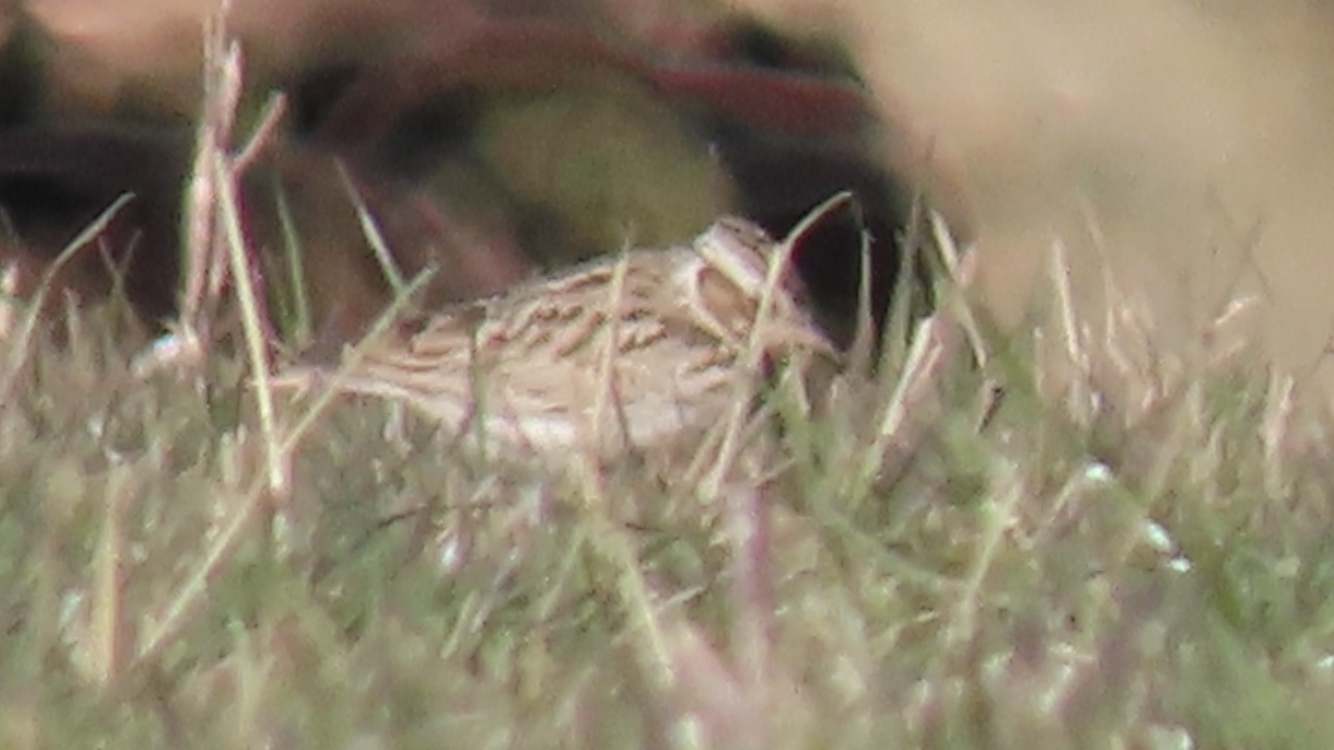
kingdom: Animalia
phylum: Chordata
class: Aves
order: Passeriformes
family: Alaudidae
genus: Alauda
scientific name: Alauda arvensis
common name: Eurasian skylark
